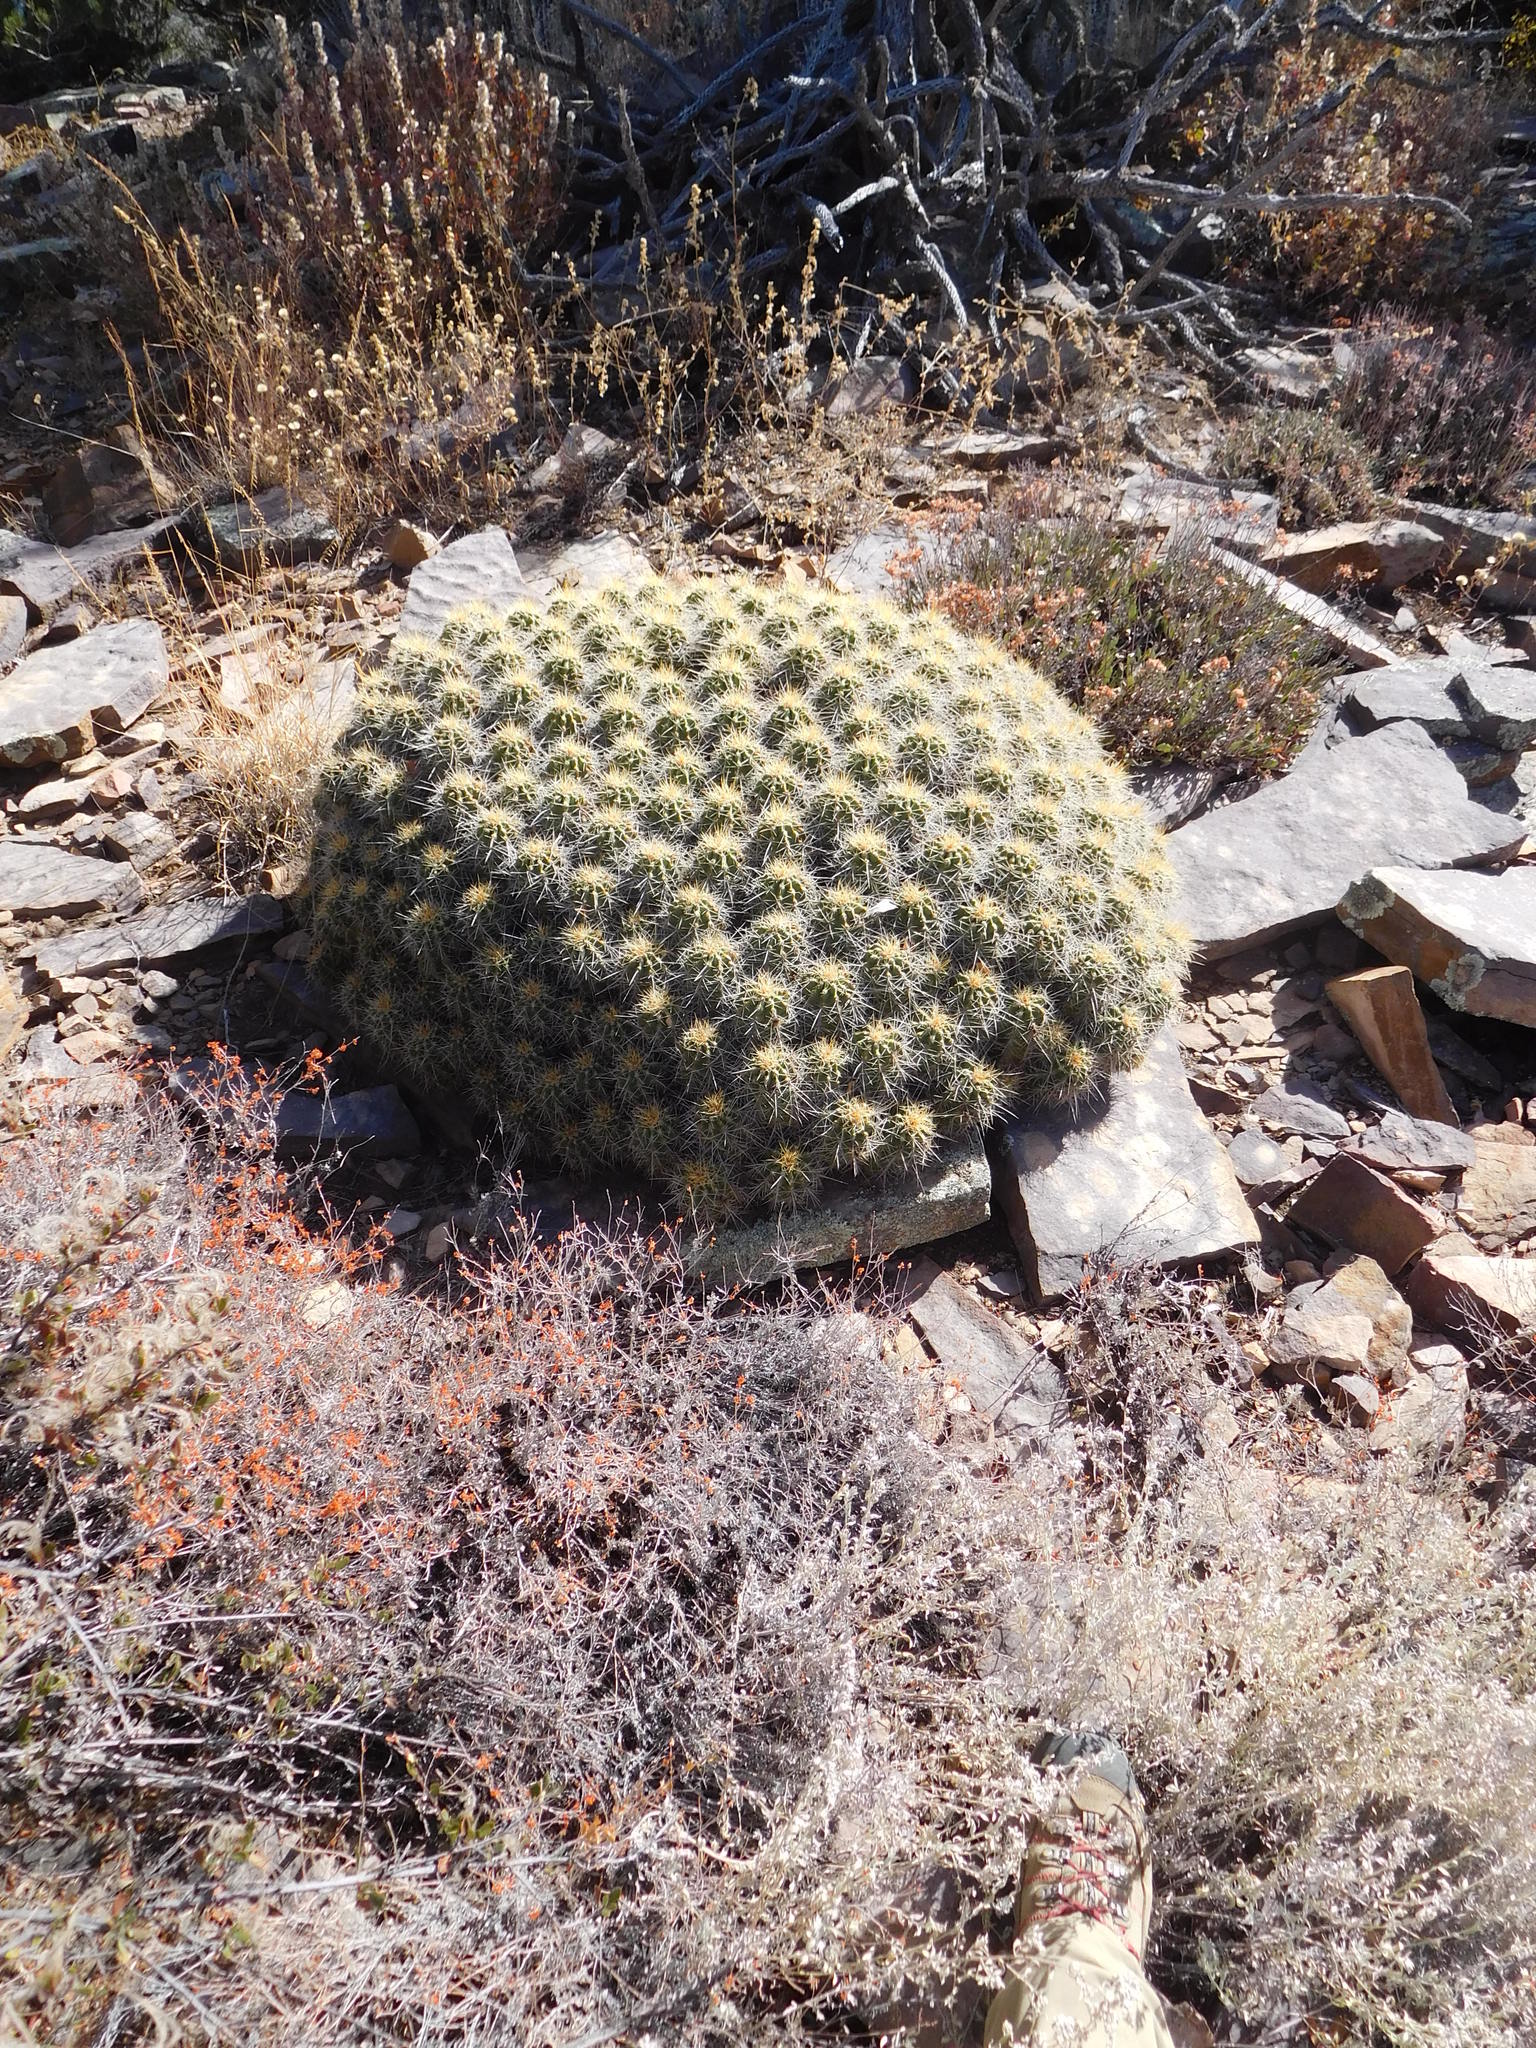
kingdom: Plantae
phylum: Tracheophyta
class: Magnoliopsida
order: Caryophyllales
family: Cactaceae
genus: Echinocereus
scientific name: Echinocereus coccineus
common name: Scarlet hedgehog cactus
